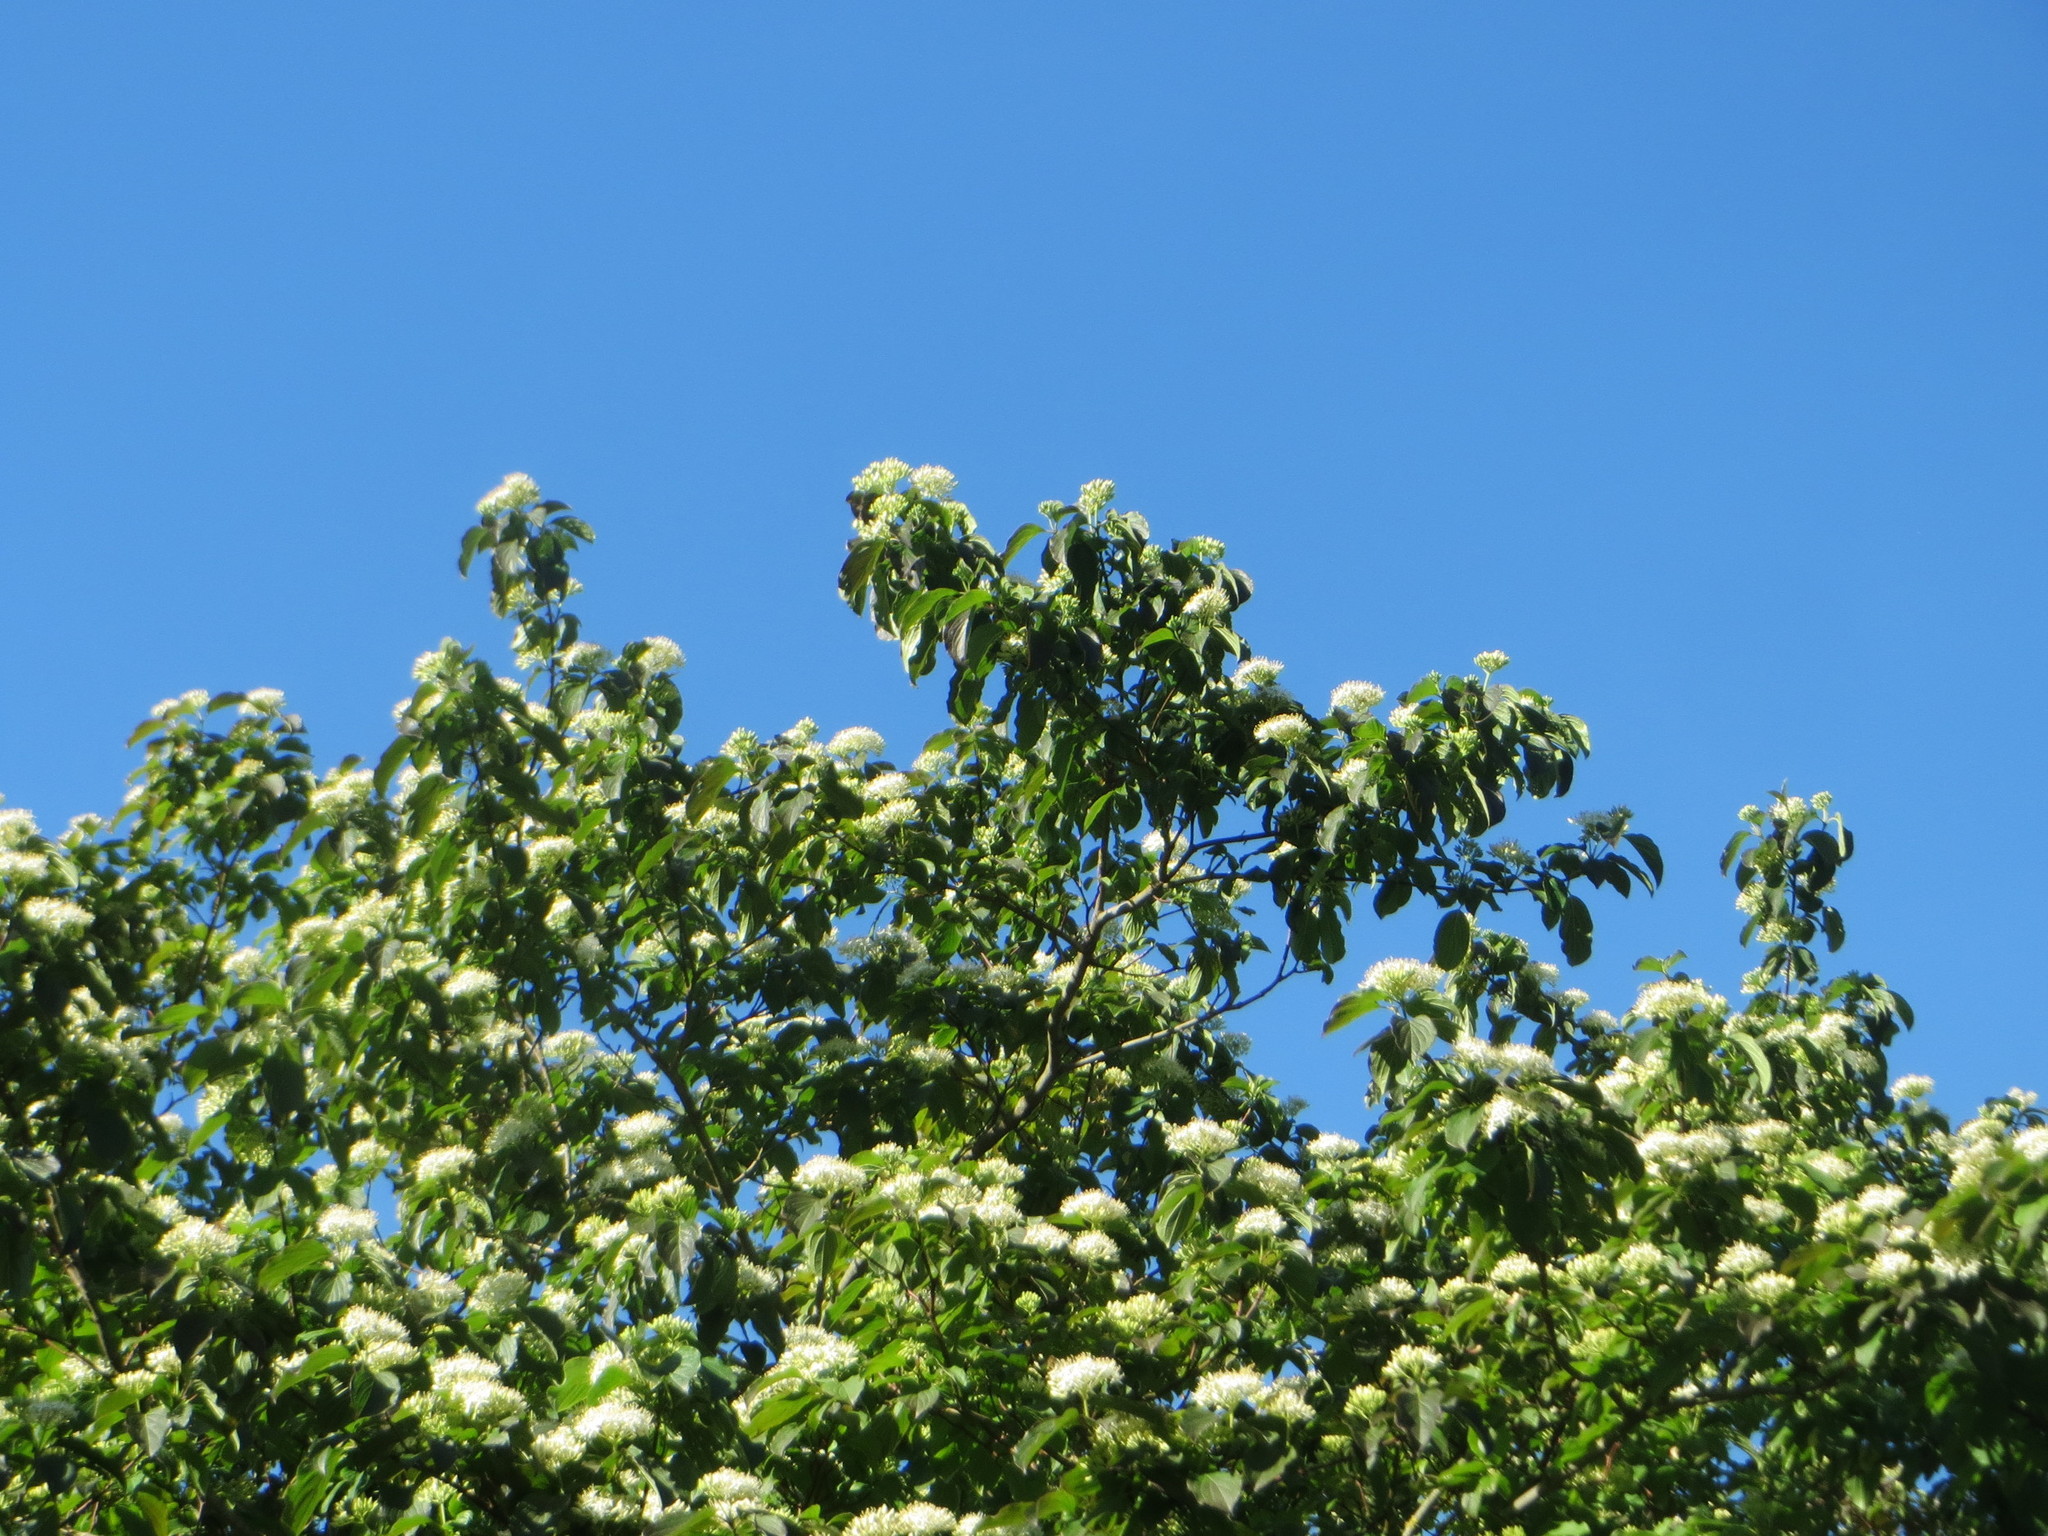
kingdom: Plantae
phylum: Tracheophyta
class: Magnoliopsida
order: Cornales
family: Cornaceae
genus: Cornus
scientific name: Cornus sanguinea
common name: Dogwood
